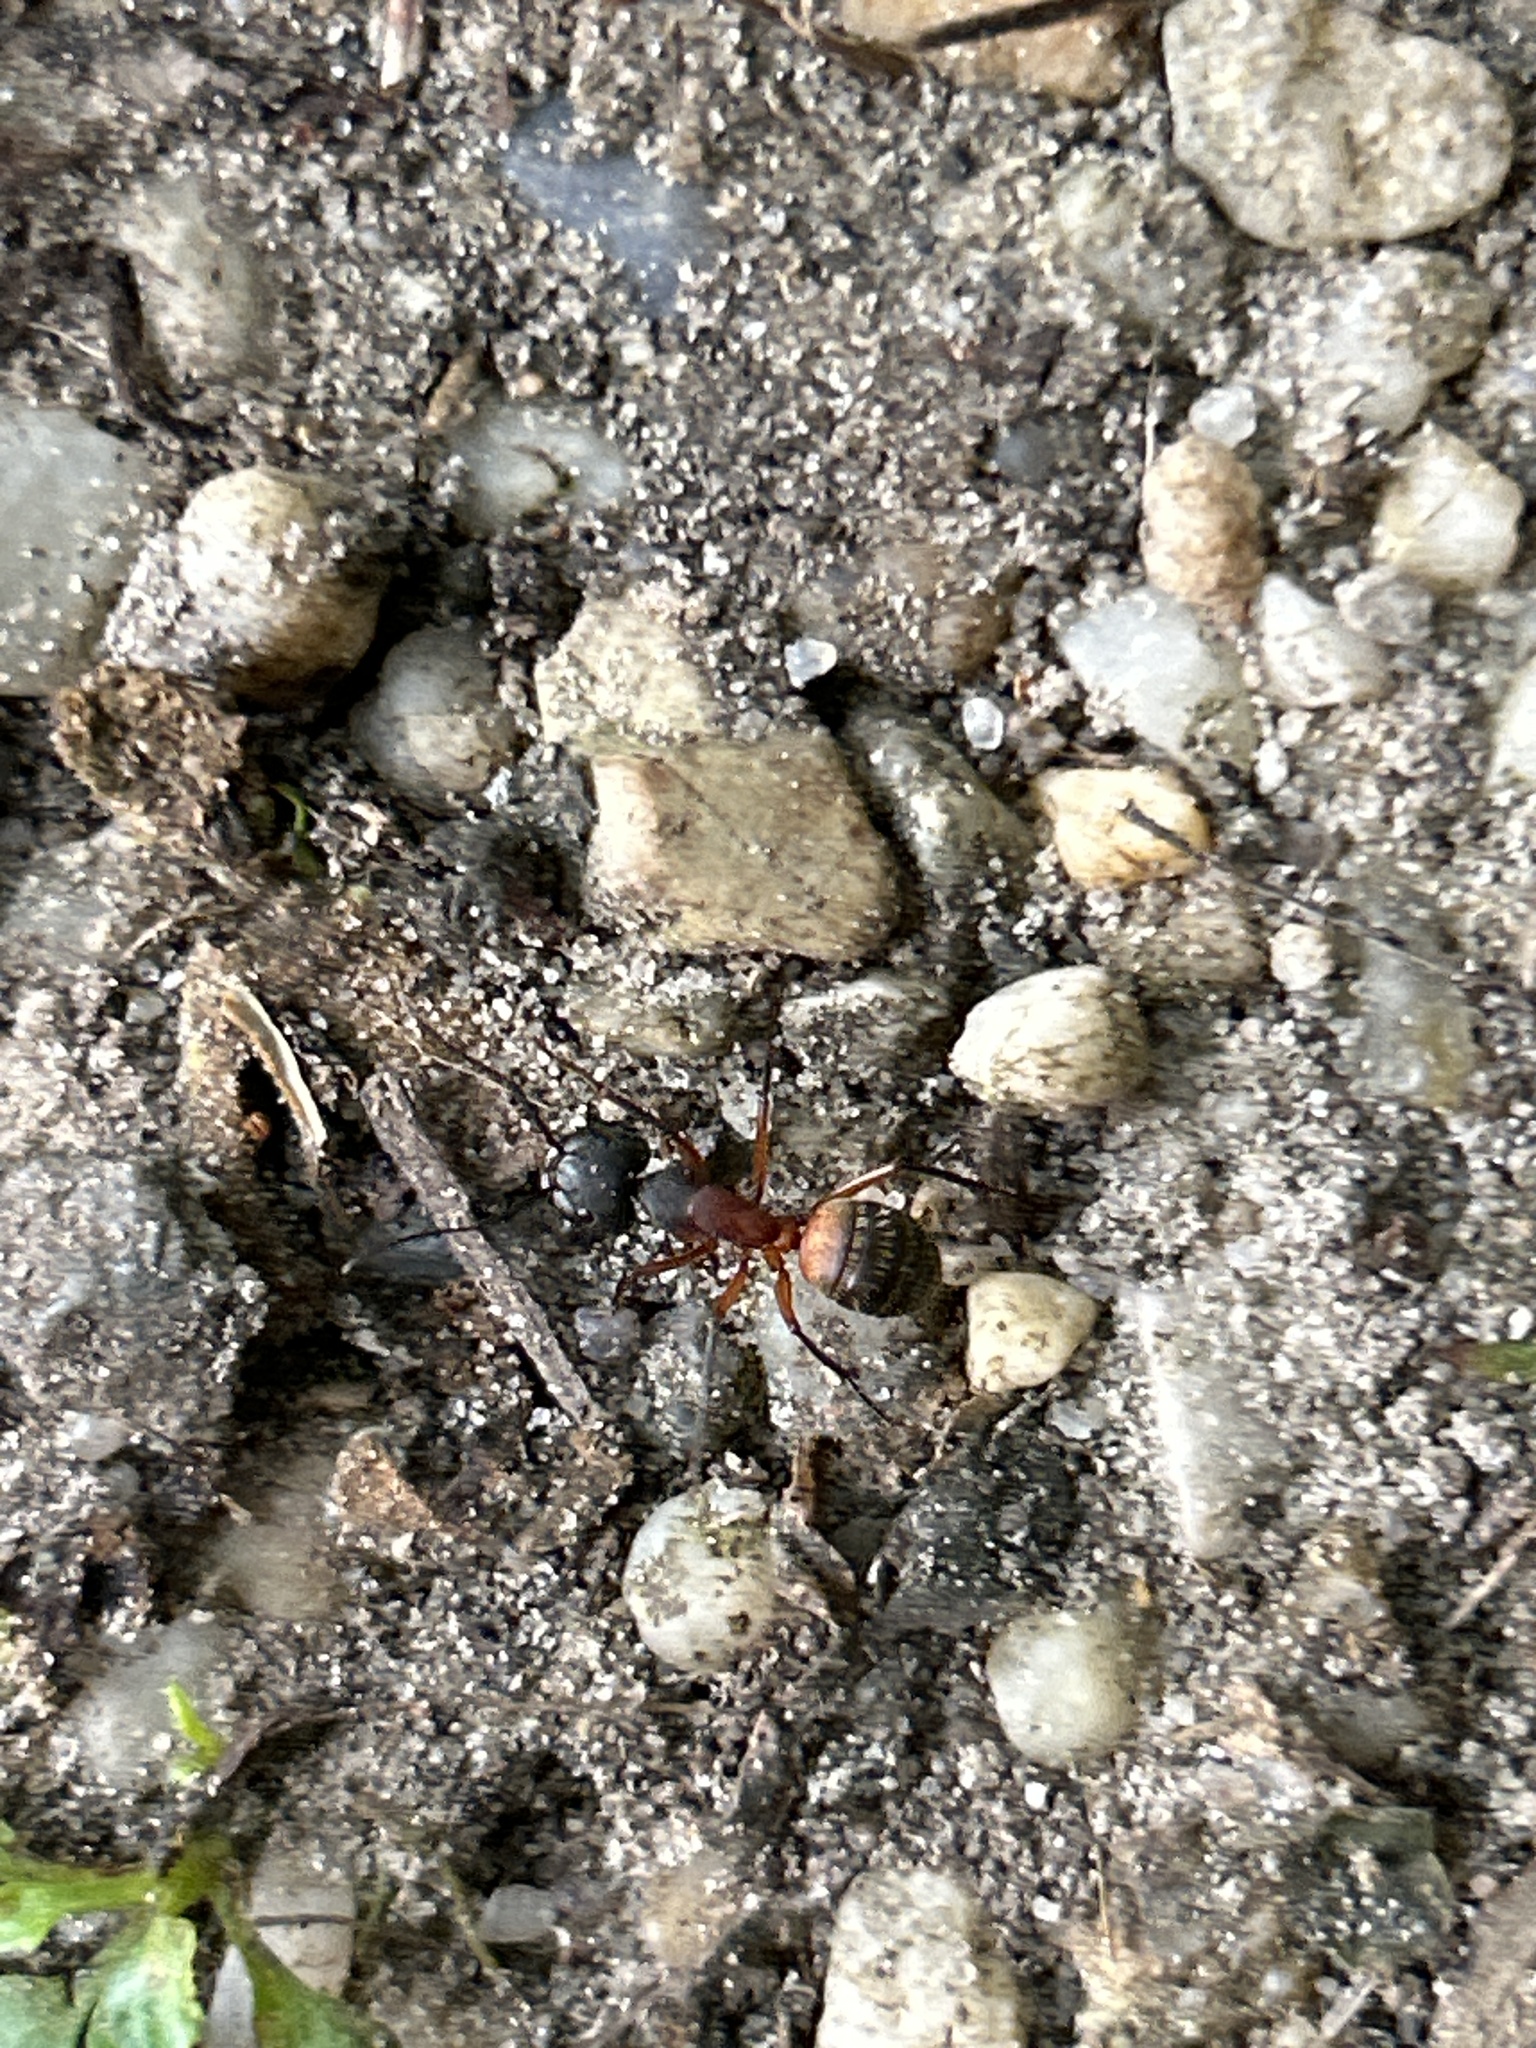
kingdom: Animalia
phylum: Arthropoda
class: Insecta
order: Hymenoptera
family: Formicidae
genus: Camponotus
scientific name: Camponotus chromaiodes
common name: Red carpenter ant
